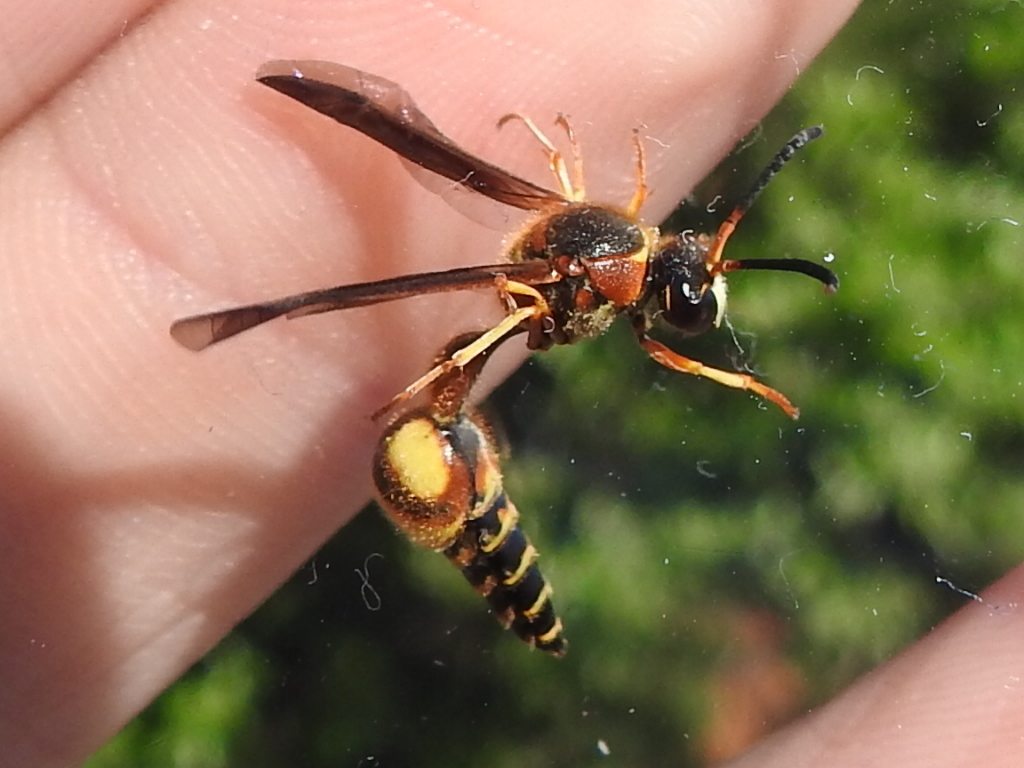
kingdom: Animalia
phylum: Arthropoda
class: Insecta
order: Hymenoptera
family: Vespidae
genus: Eumenes
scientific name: Eumenes bollii
